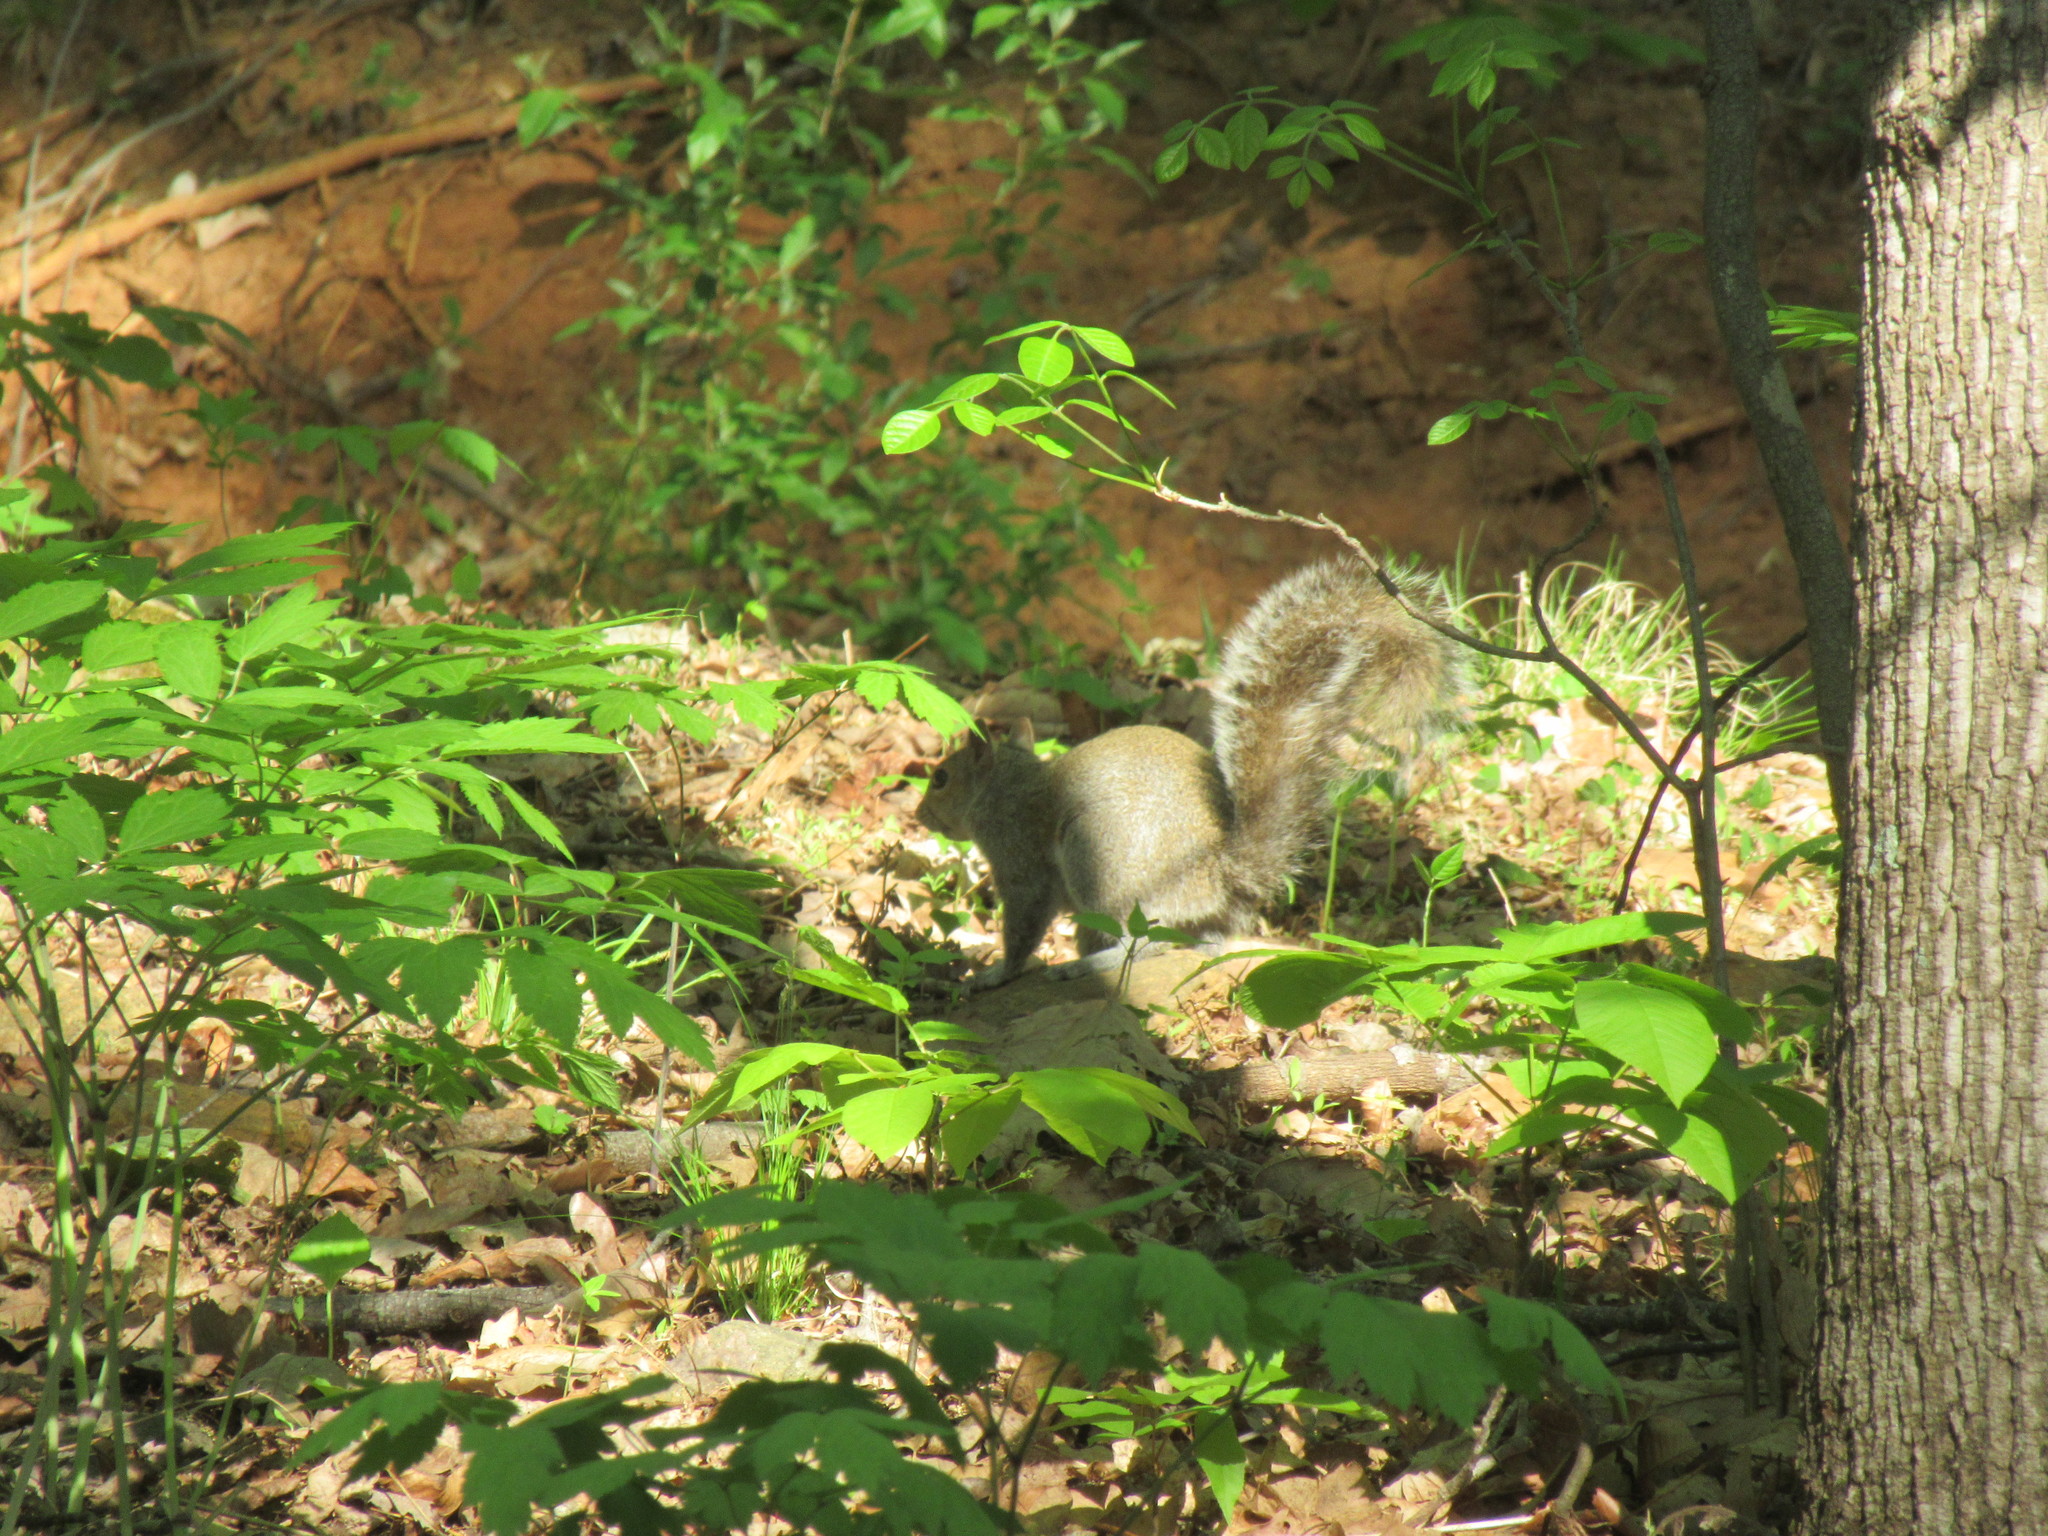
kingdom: Animalia
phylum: Chordata
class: Mammalia
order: Rodentia
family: Sciuridae
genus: Sciurus
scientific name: Sciurus carolinensis
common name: Eastern gray squirrel
